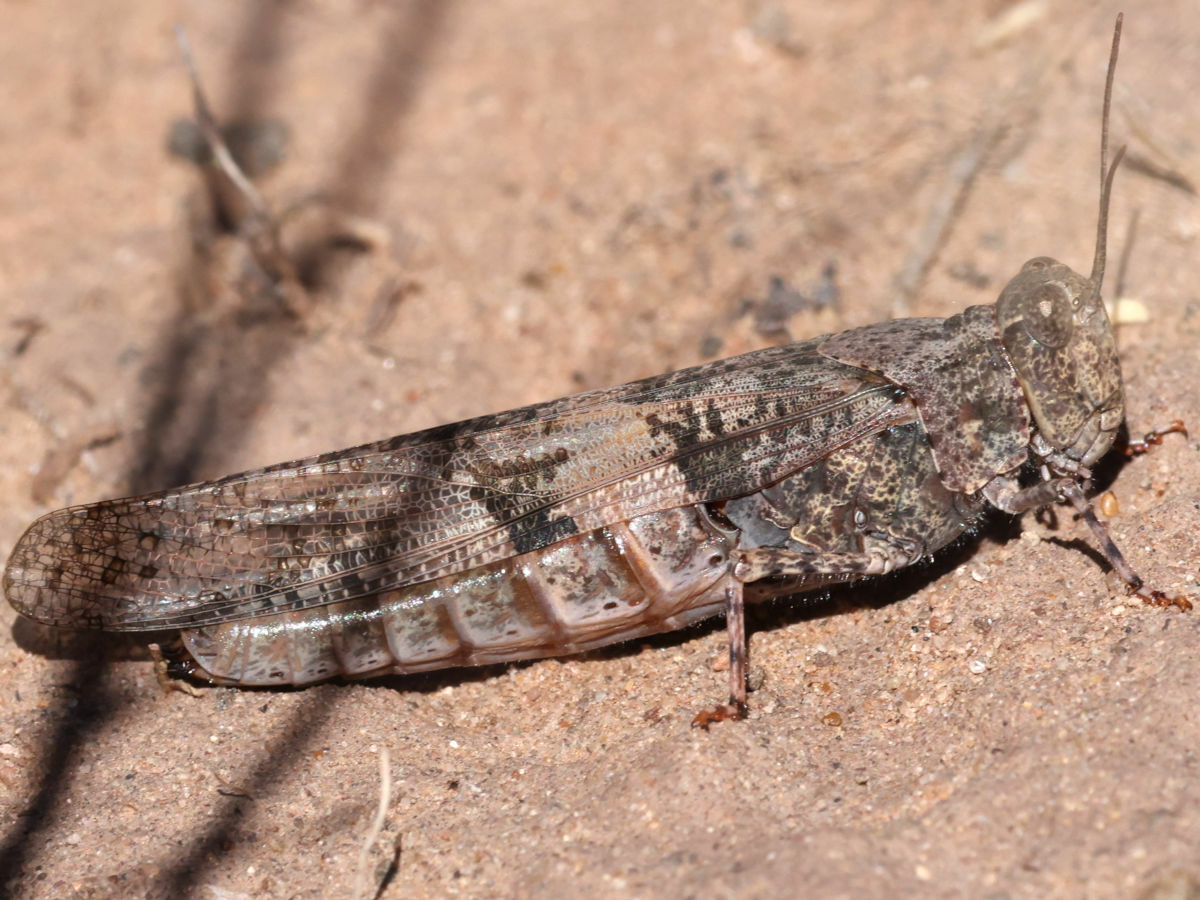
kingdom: Animalia
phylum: Arthropoda
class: Insecta
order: Orthoptera
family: Acrididae
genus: Trimerotropis
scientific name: Trimerotropis pallidipennis
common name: Pallid-winged grasshopper
